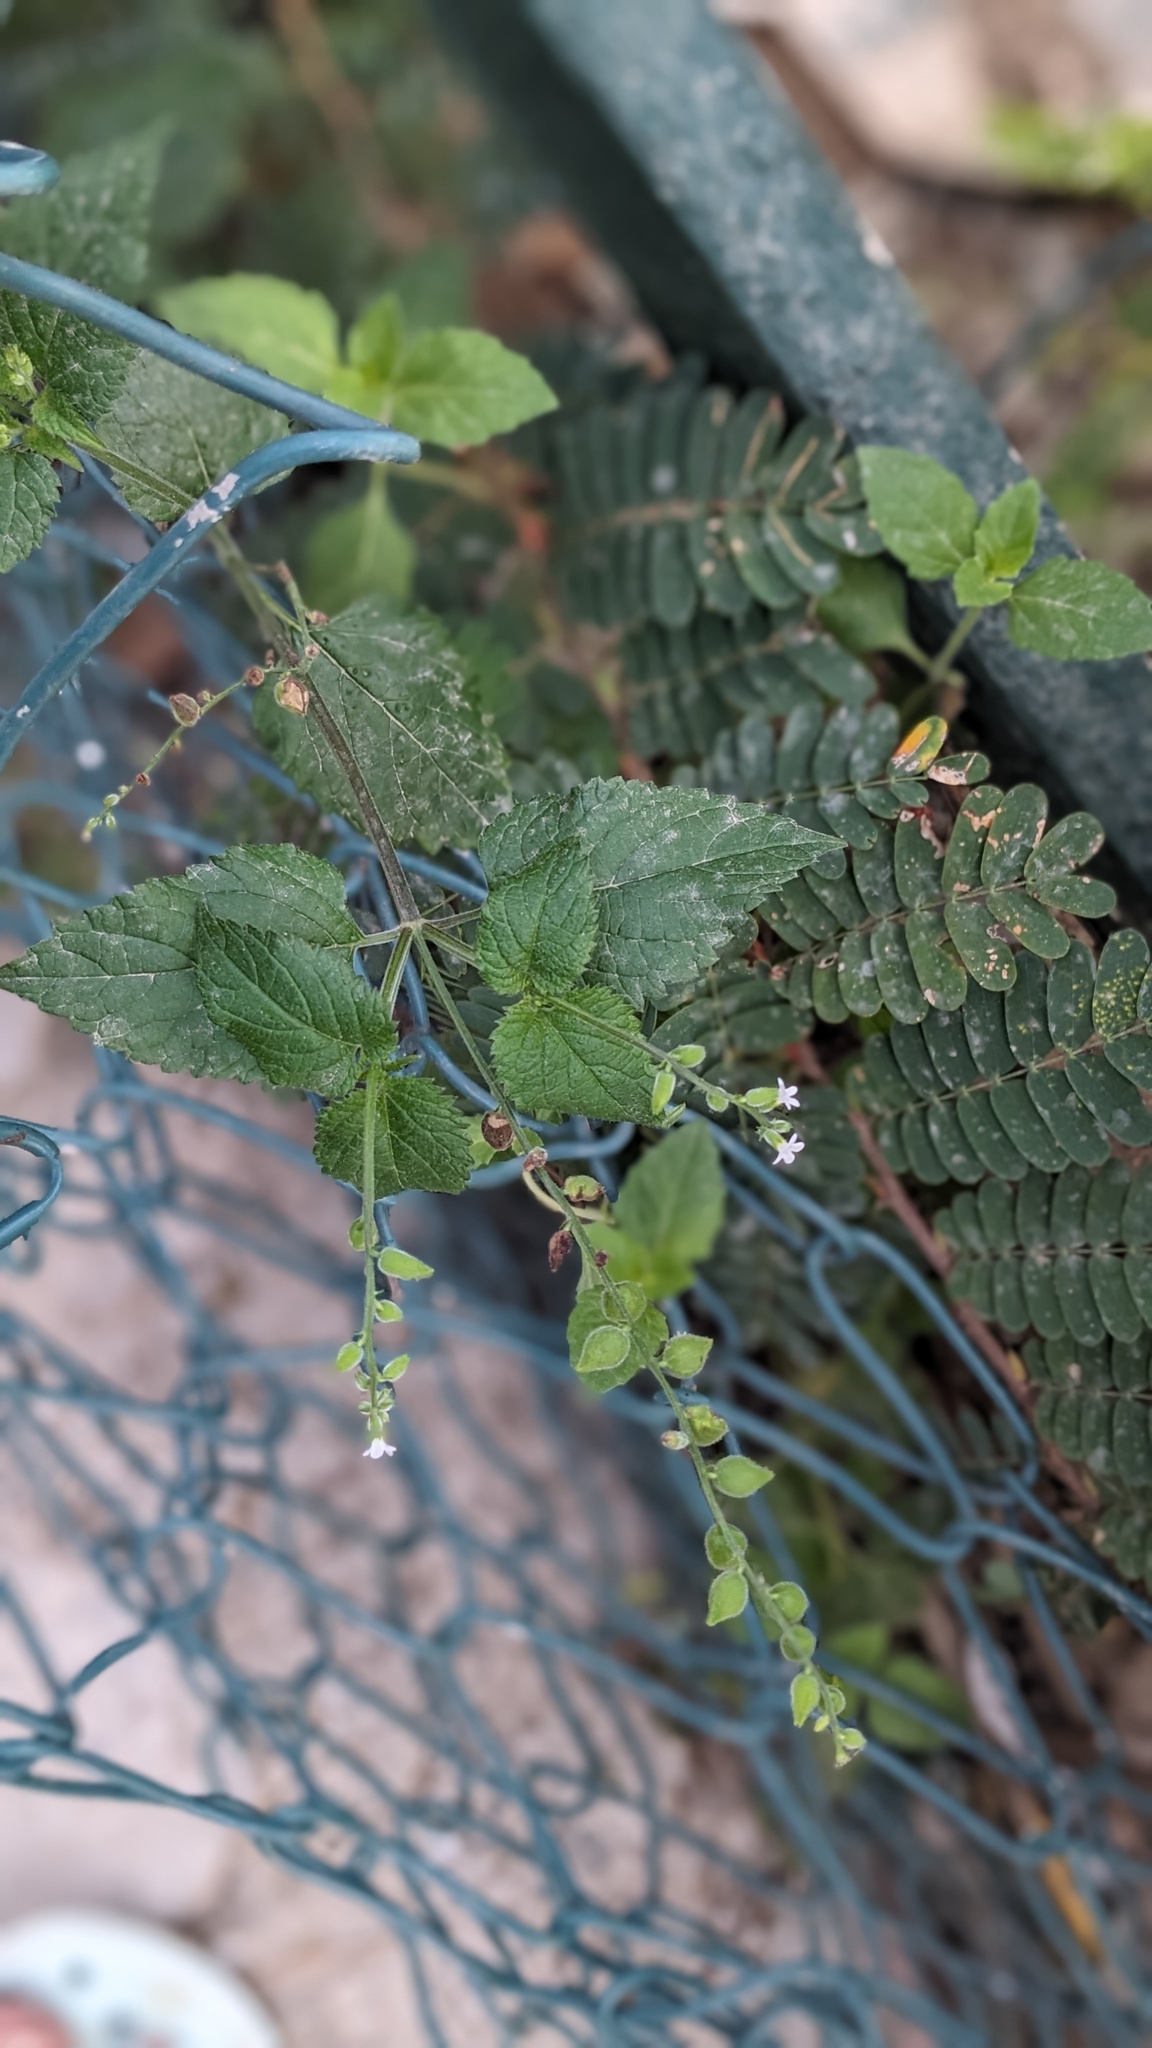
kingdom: Plantae
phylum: Tracheophyta
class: Magnoliopsida
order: Lamiales
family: Verbenaceae
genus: Priva
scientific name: Priva lappulacea
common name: Fasten-'pon-coat
